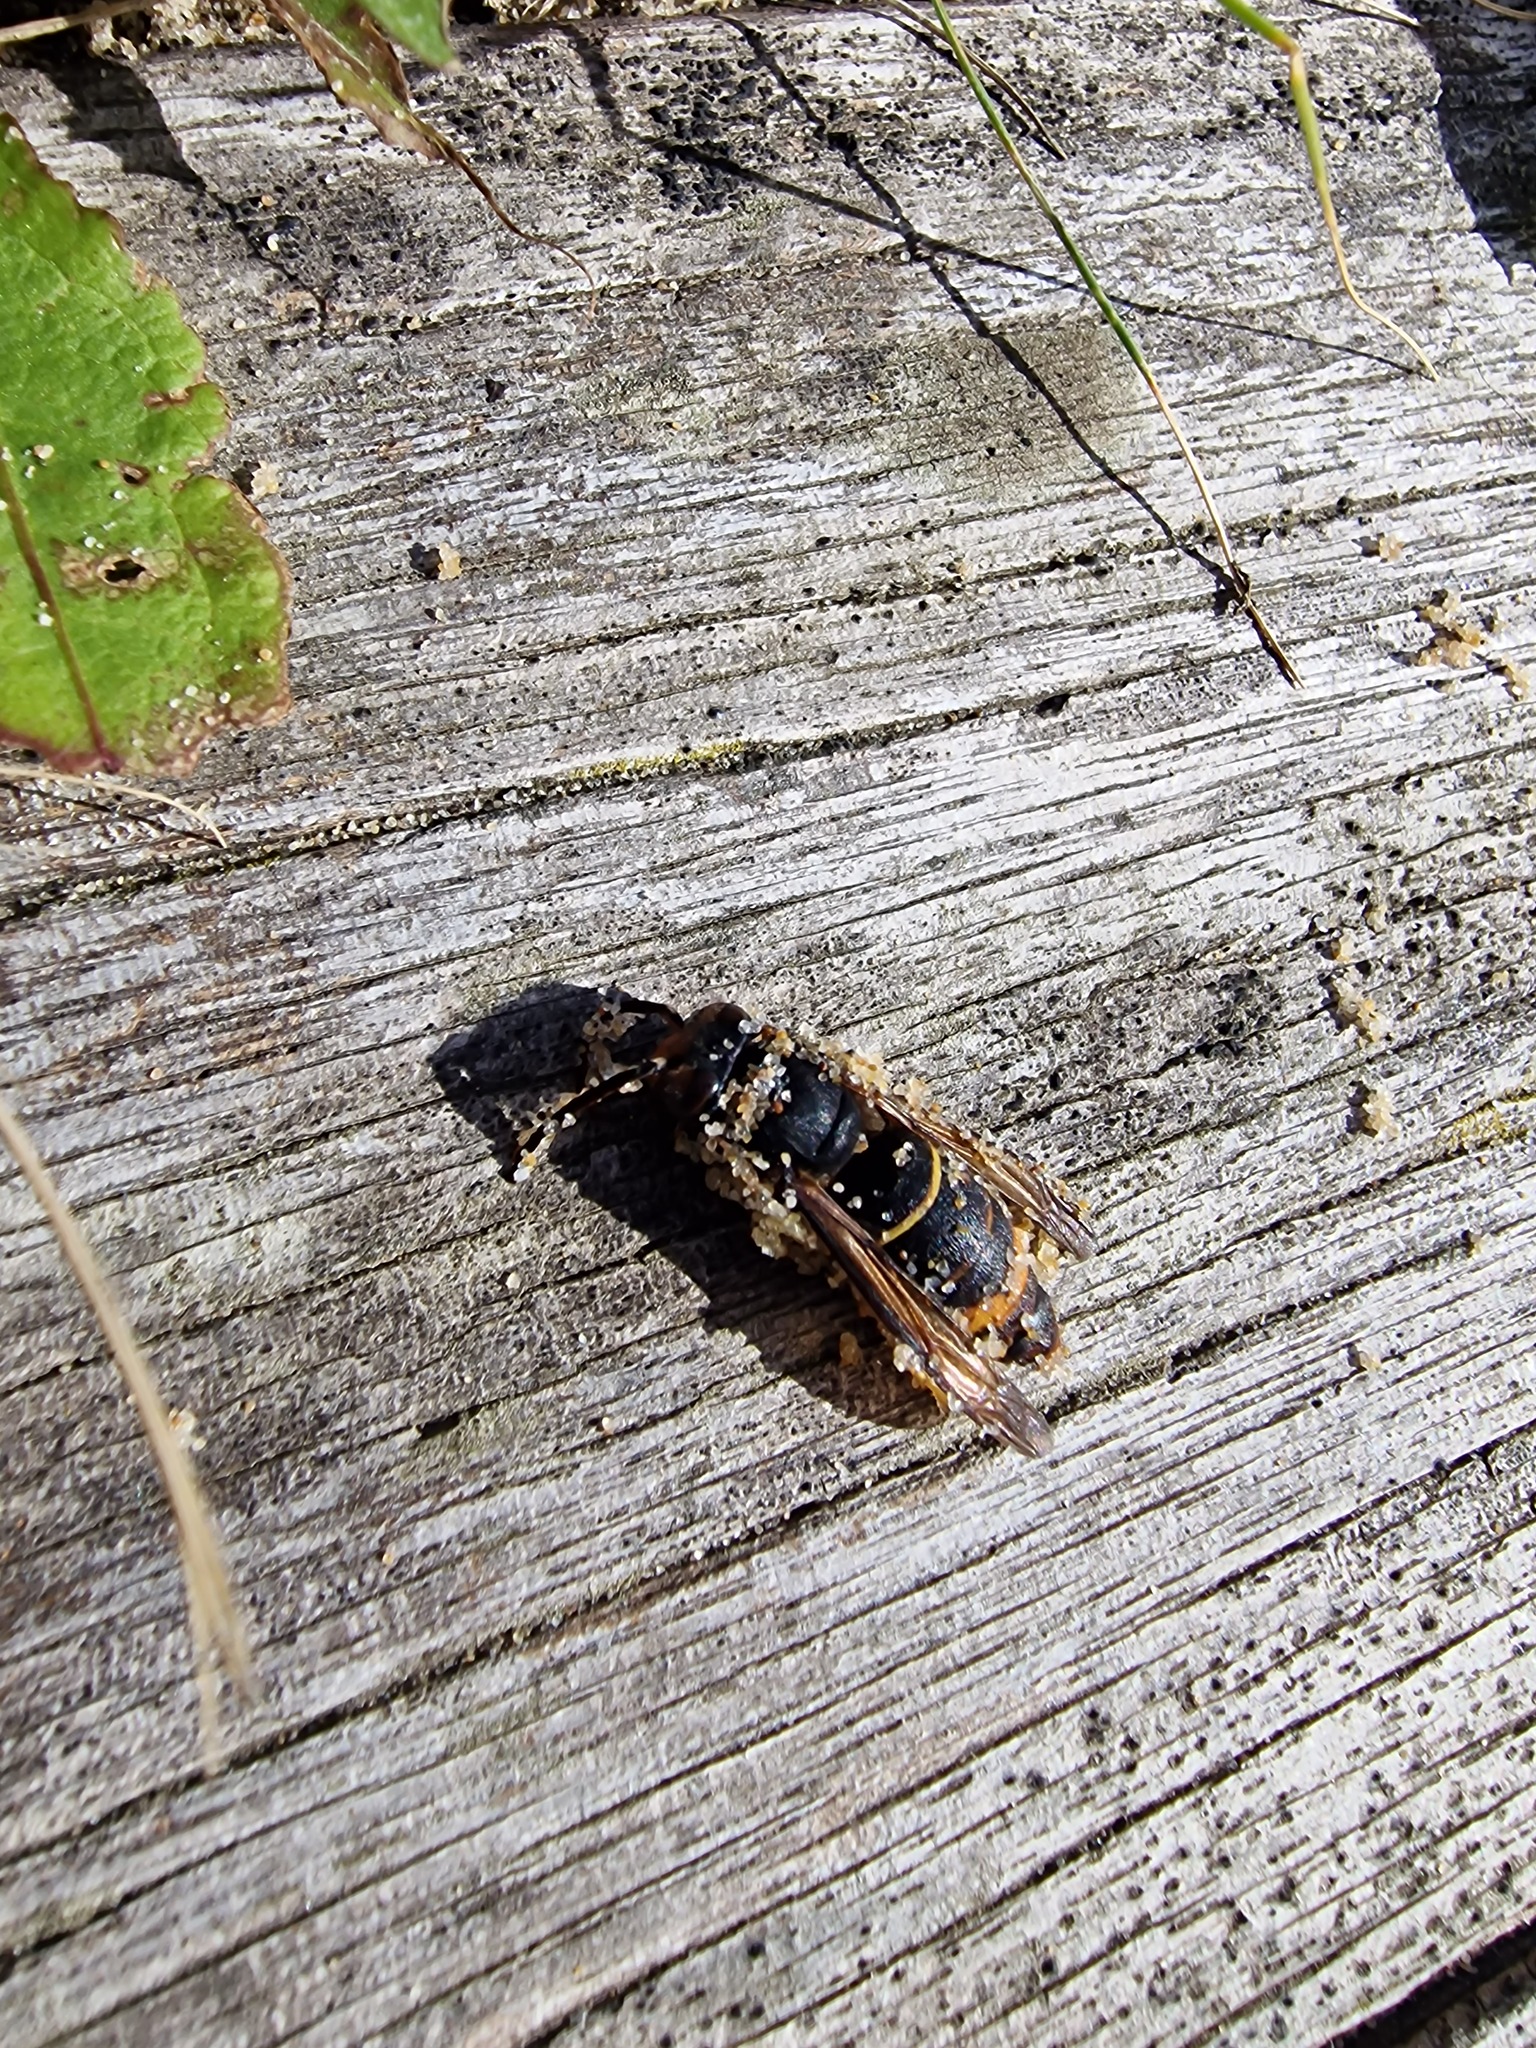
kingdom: Animalia
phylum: Arthropoda
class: Insecta
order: Hymenoptera
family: Vespidae
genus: Vespa
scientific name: Vespa velutina
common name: Asian hornet
